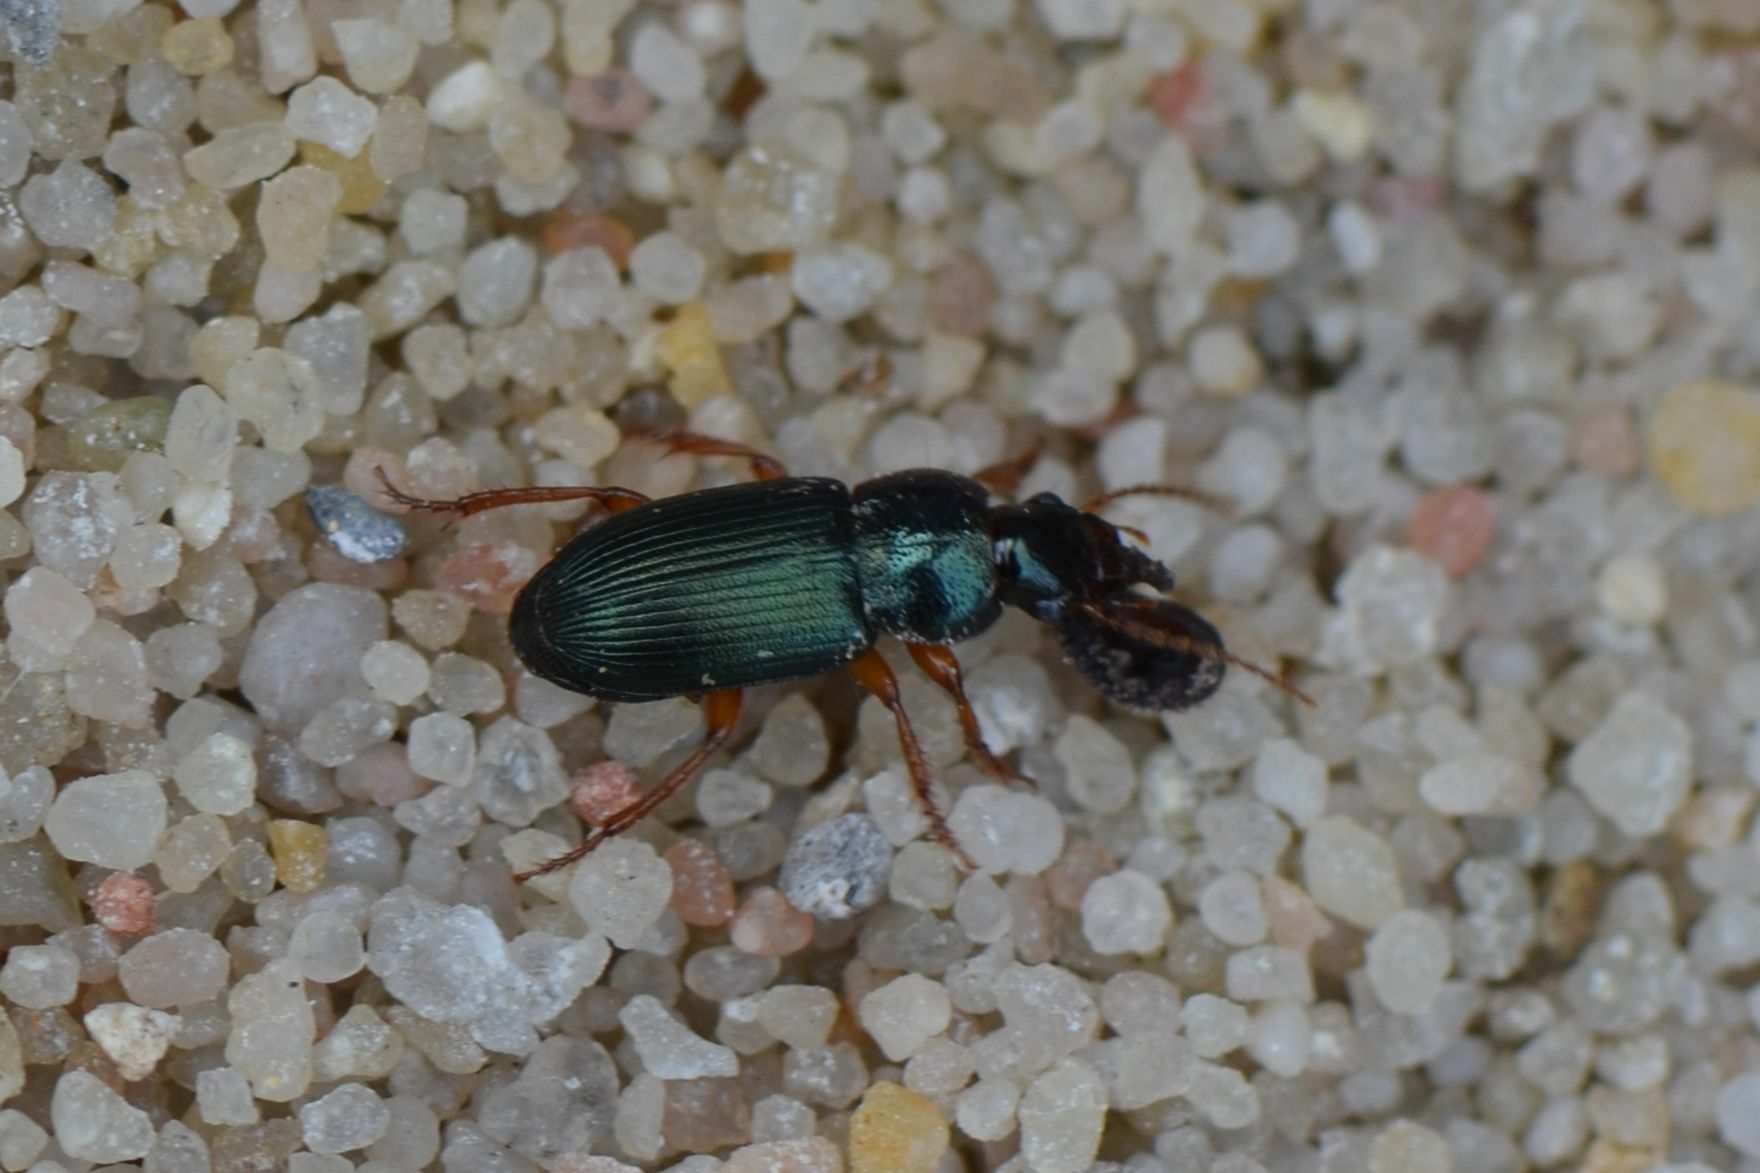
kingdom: Animalia
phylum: Arthropoda
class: Insecta
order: Coleoptera
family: Carabidae
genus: Ophonus
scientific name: Ophonus azureus
